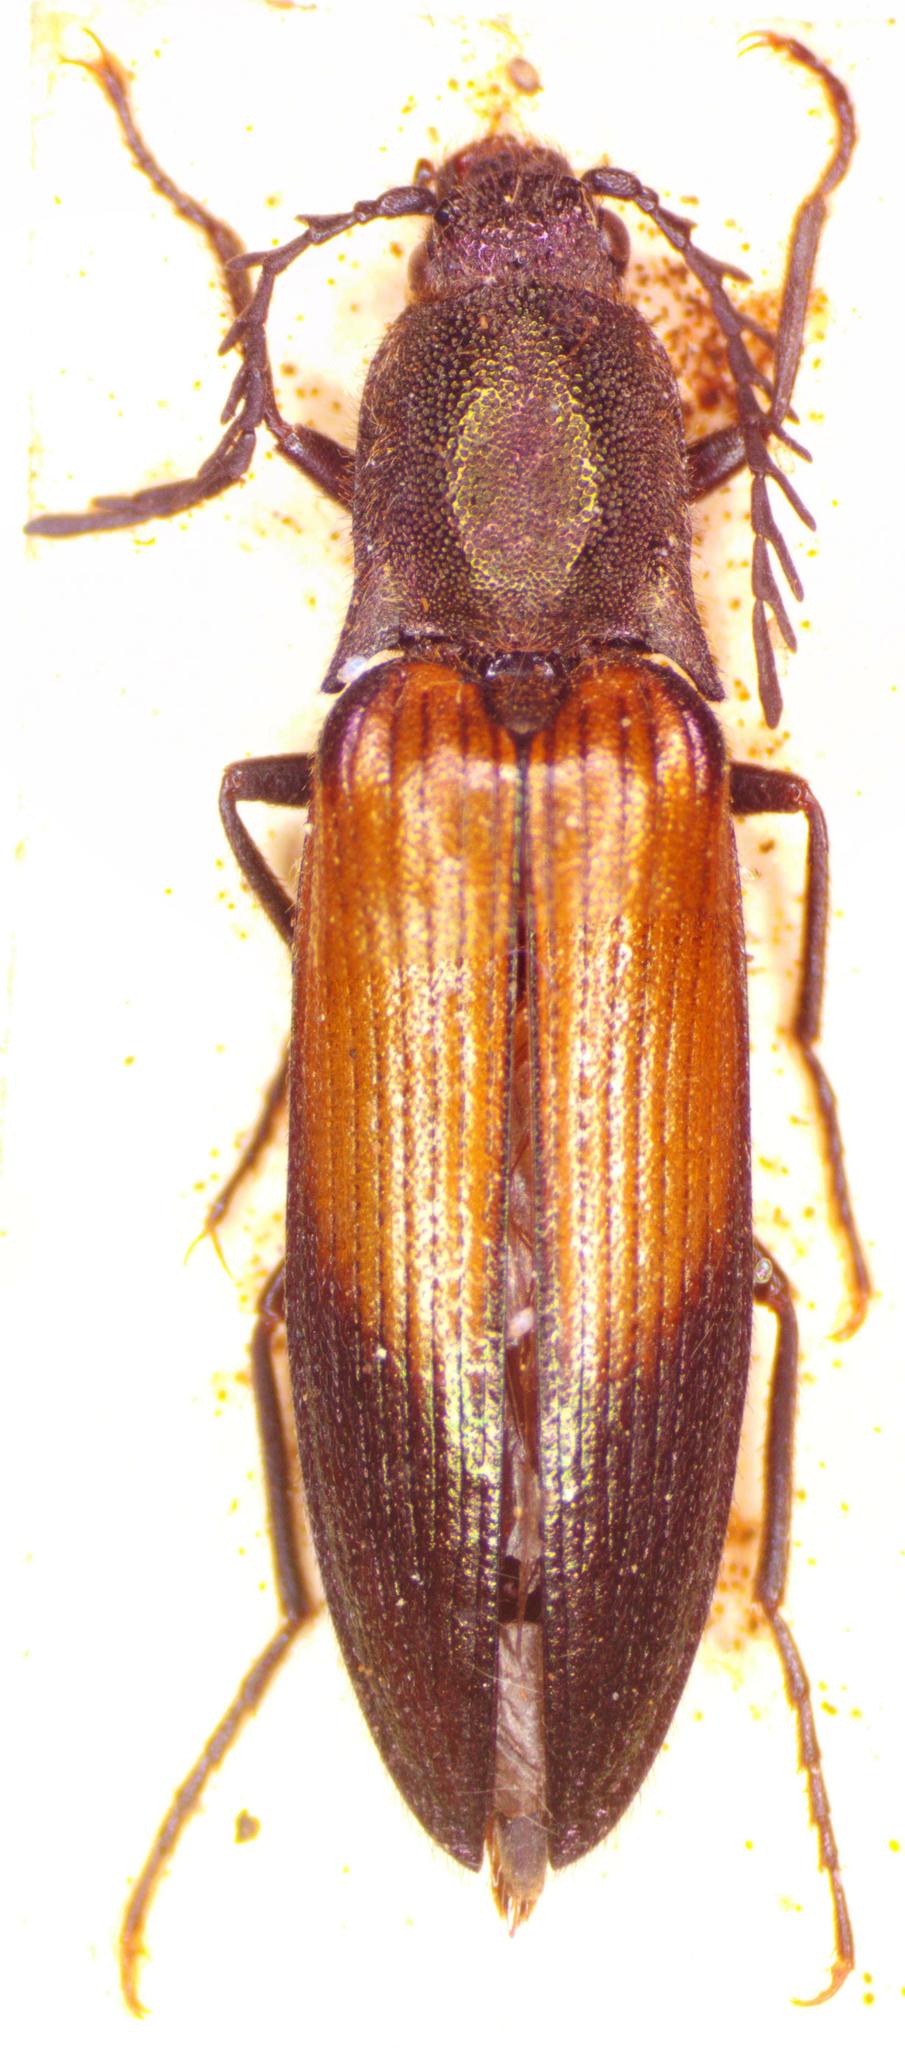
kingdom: Animalia
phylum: Arthropoda
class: Insecta
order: Coleoptera
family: Elateridae
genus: Ctenicera
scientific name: Ctenicera cuprea
